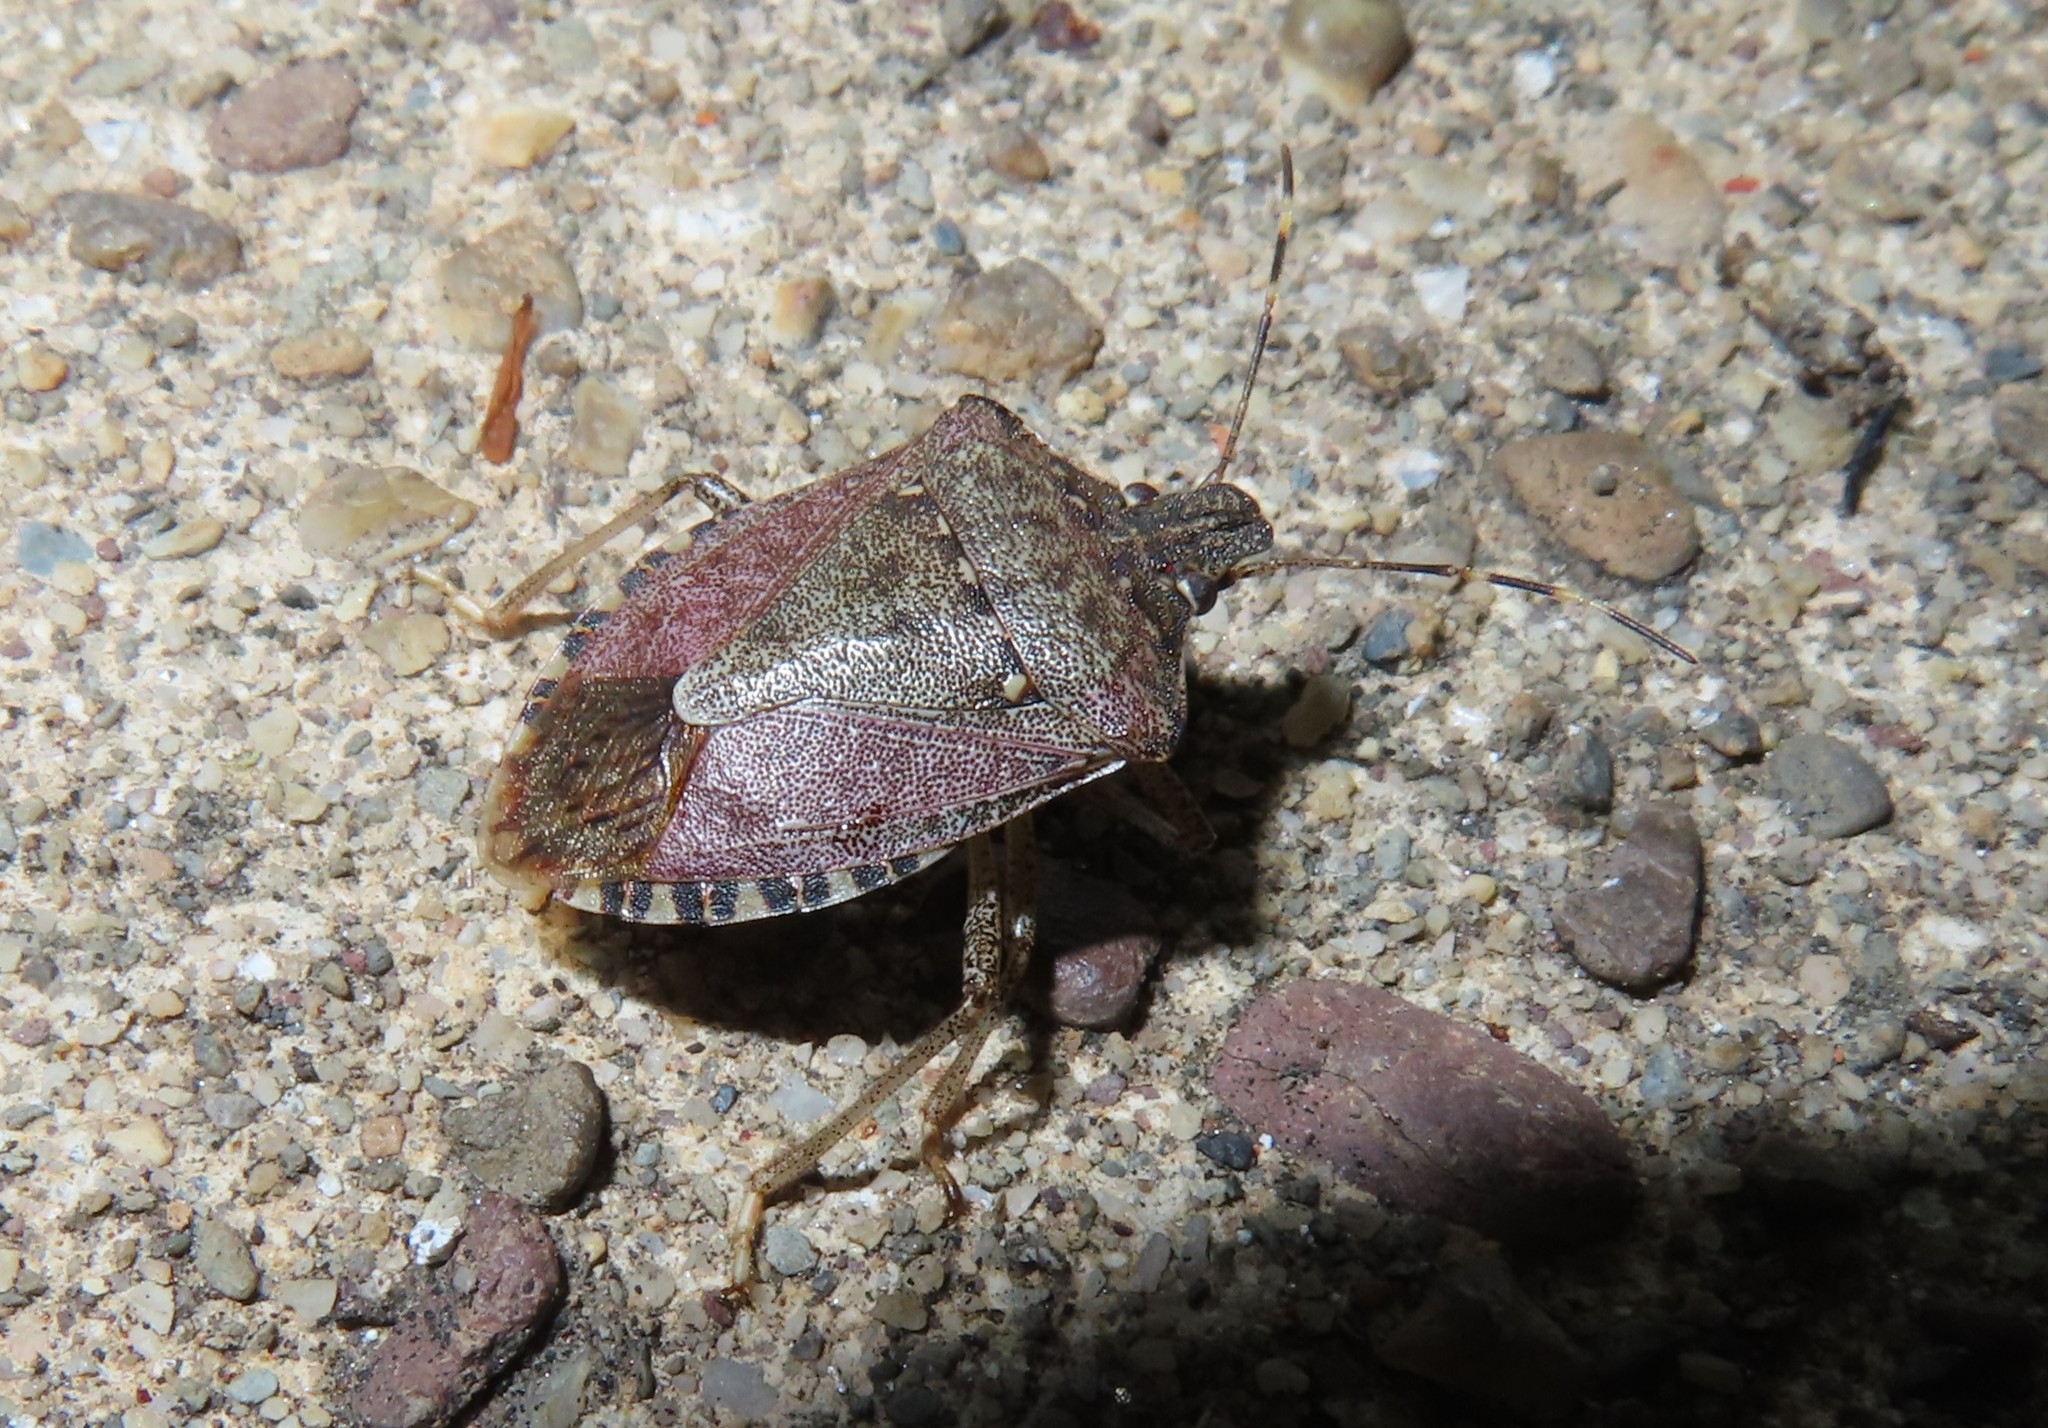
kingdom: Animalia
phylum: Arthropoda
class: Insecta
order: Hemiptera
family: Pentatomidae
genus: Halyomorpha
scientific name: Halyomorpha halys
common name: Brown marmorated stink bug
